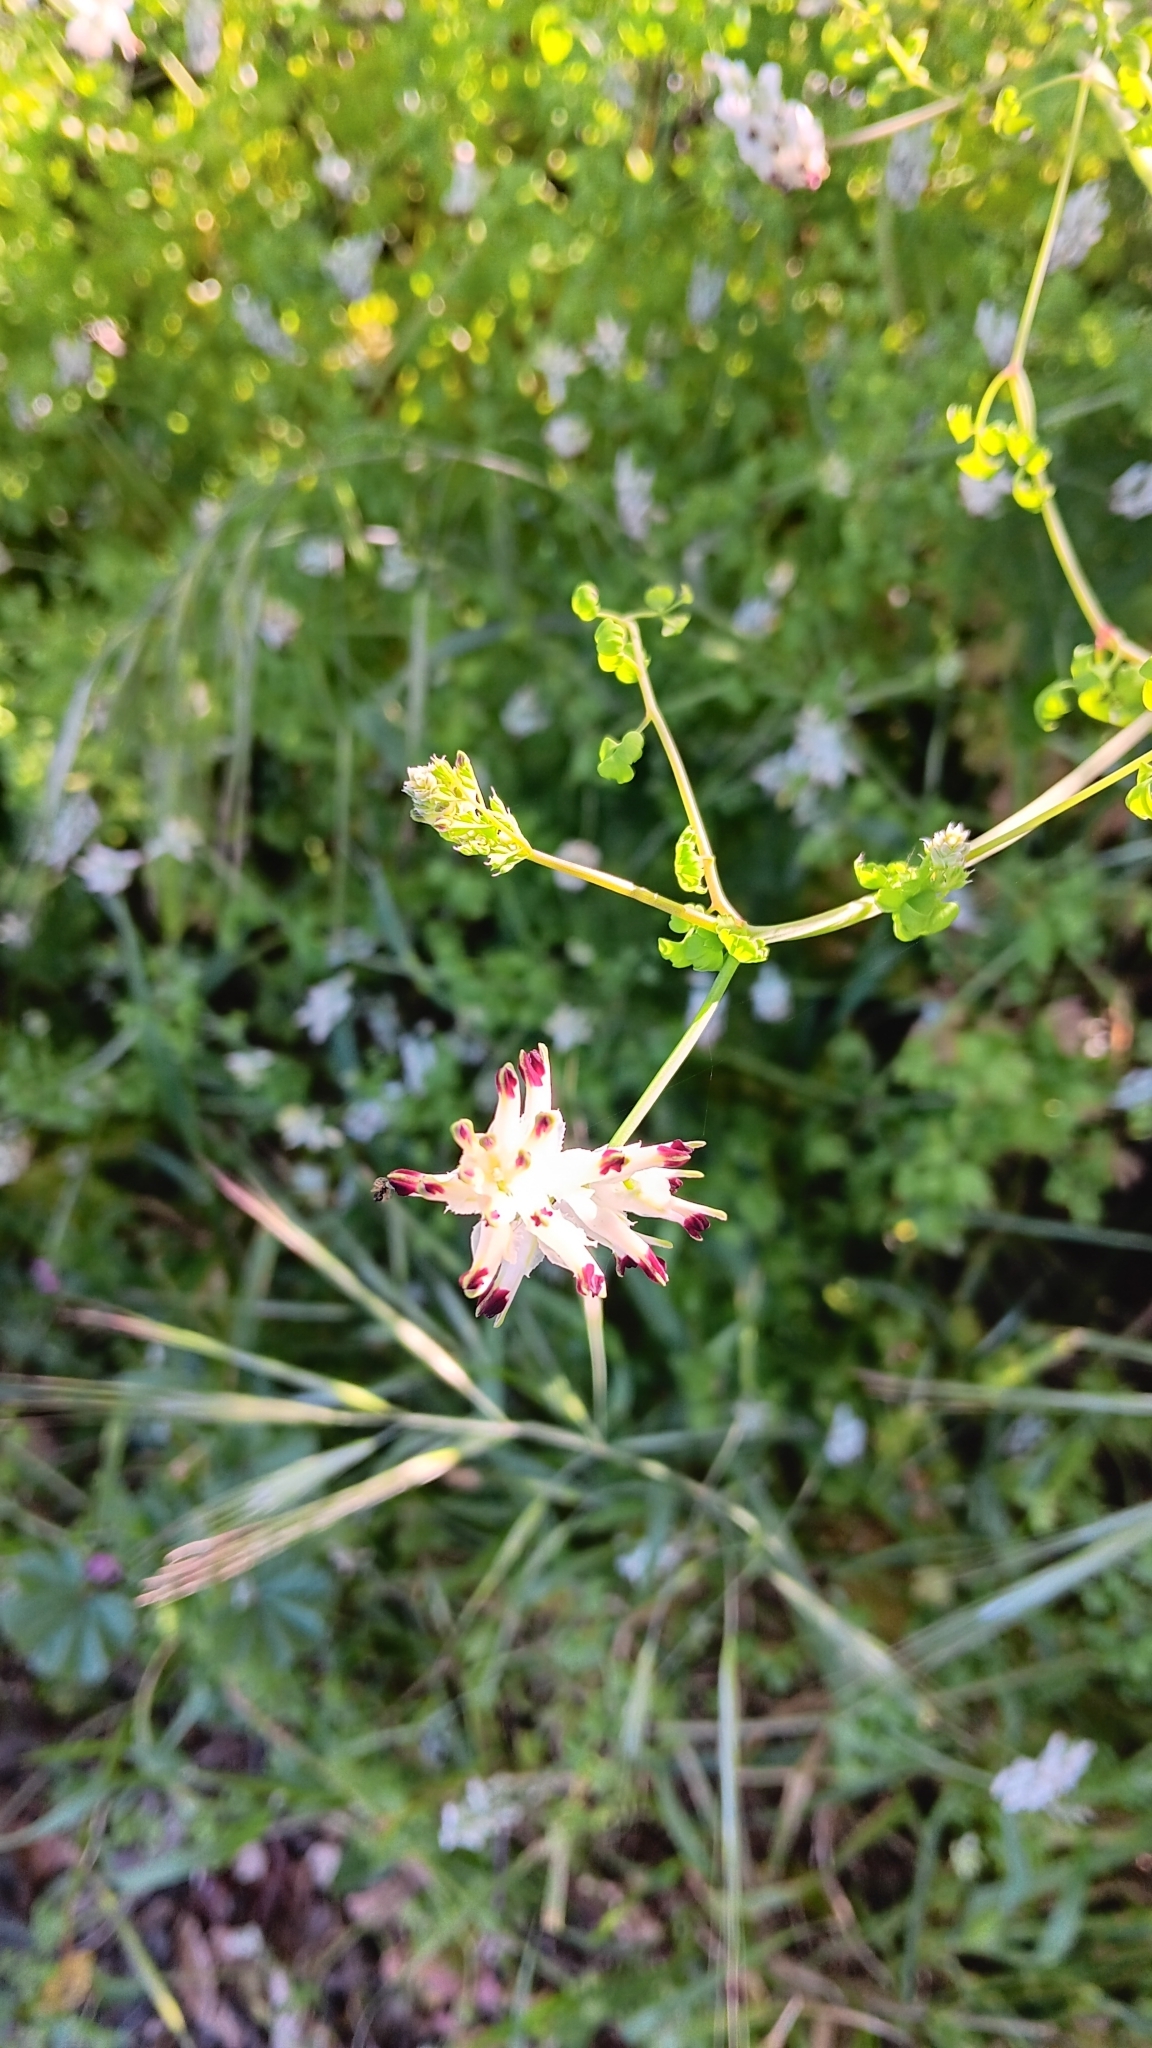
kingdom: Plantae
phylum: Tracheophyta
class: Magnoliopsida
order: Ranunculales
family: Papaveraceae
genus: Fumaria
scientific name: Fumaria capreolata
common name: White ramping-fumitory
